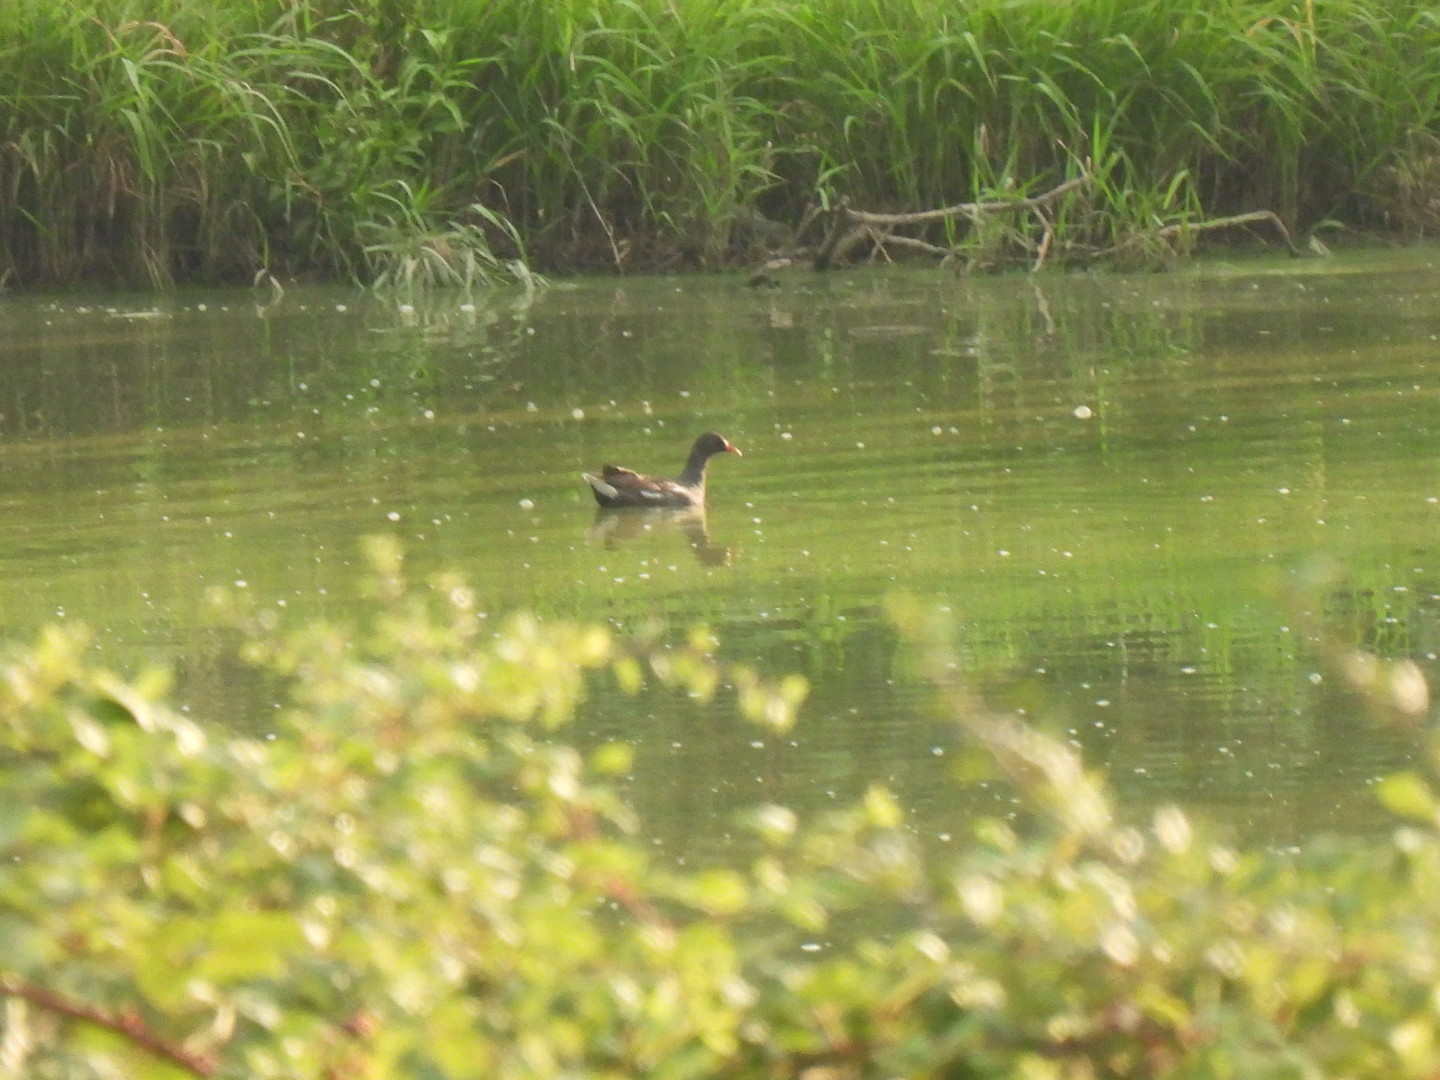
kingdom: Animalia
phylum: Chordata
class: Aves
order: Gruiformes
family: Rallidae
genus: Gallinula
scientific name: Gallinula chloropus
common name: Common moorhen
